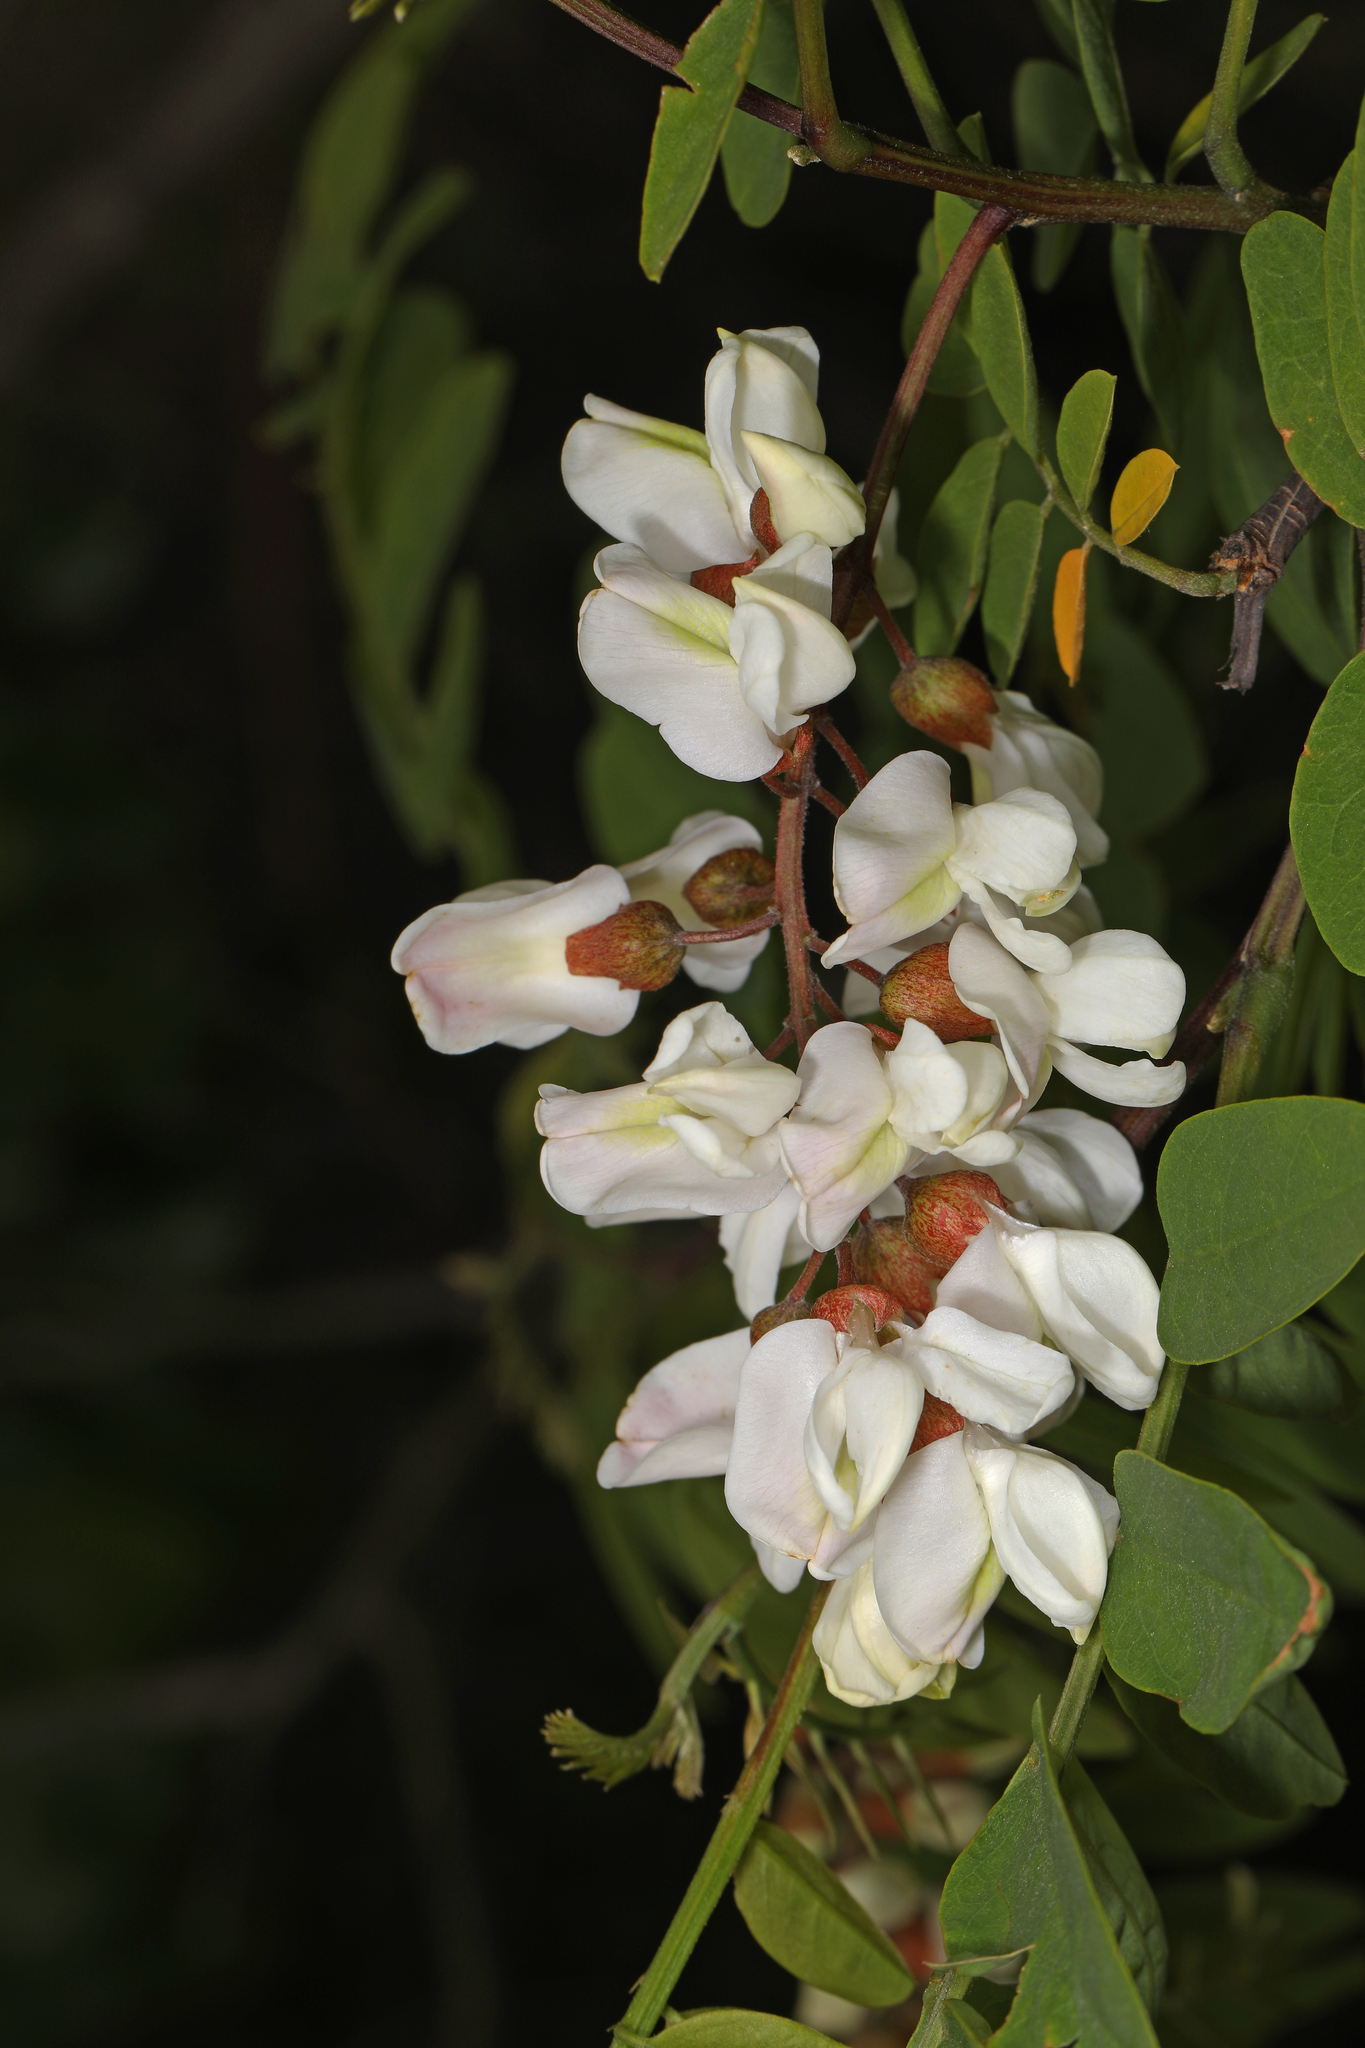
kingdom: Plantae
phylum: Tracheophyta
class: Magnoliopsida
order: Fabales
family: Fabaceae
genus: Robinia
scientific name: Robinia pseudoacacia
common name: Black locust
